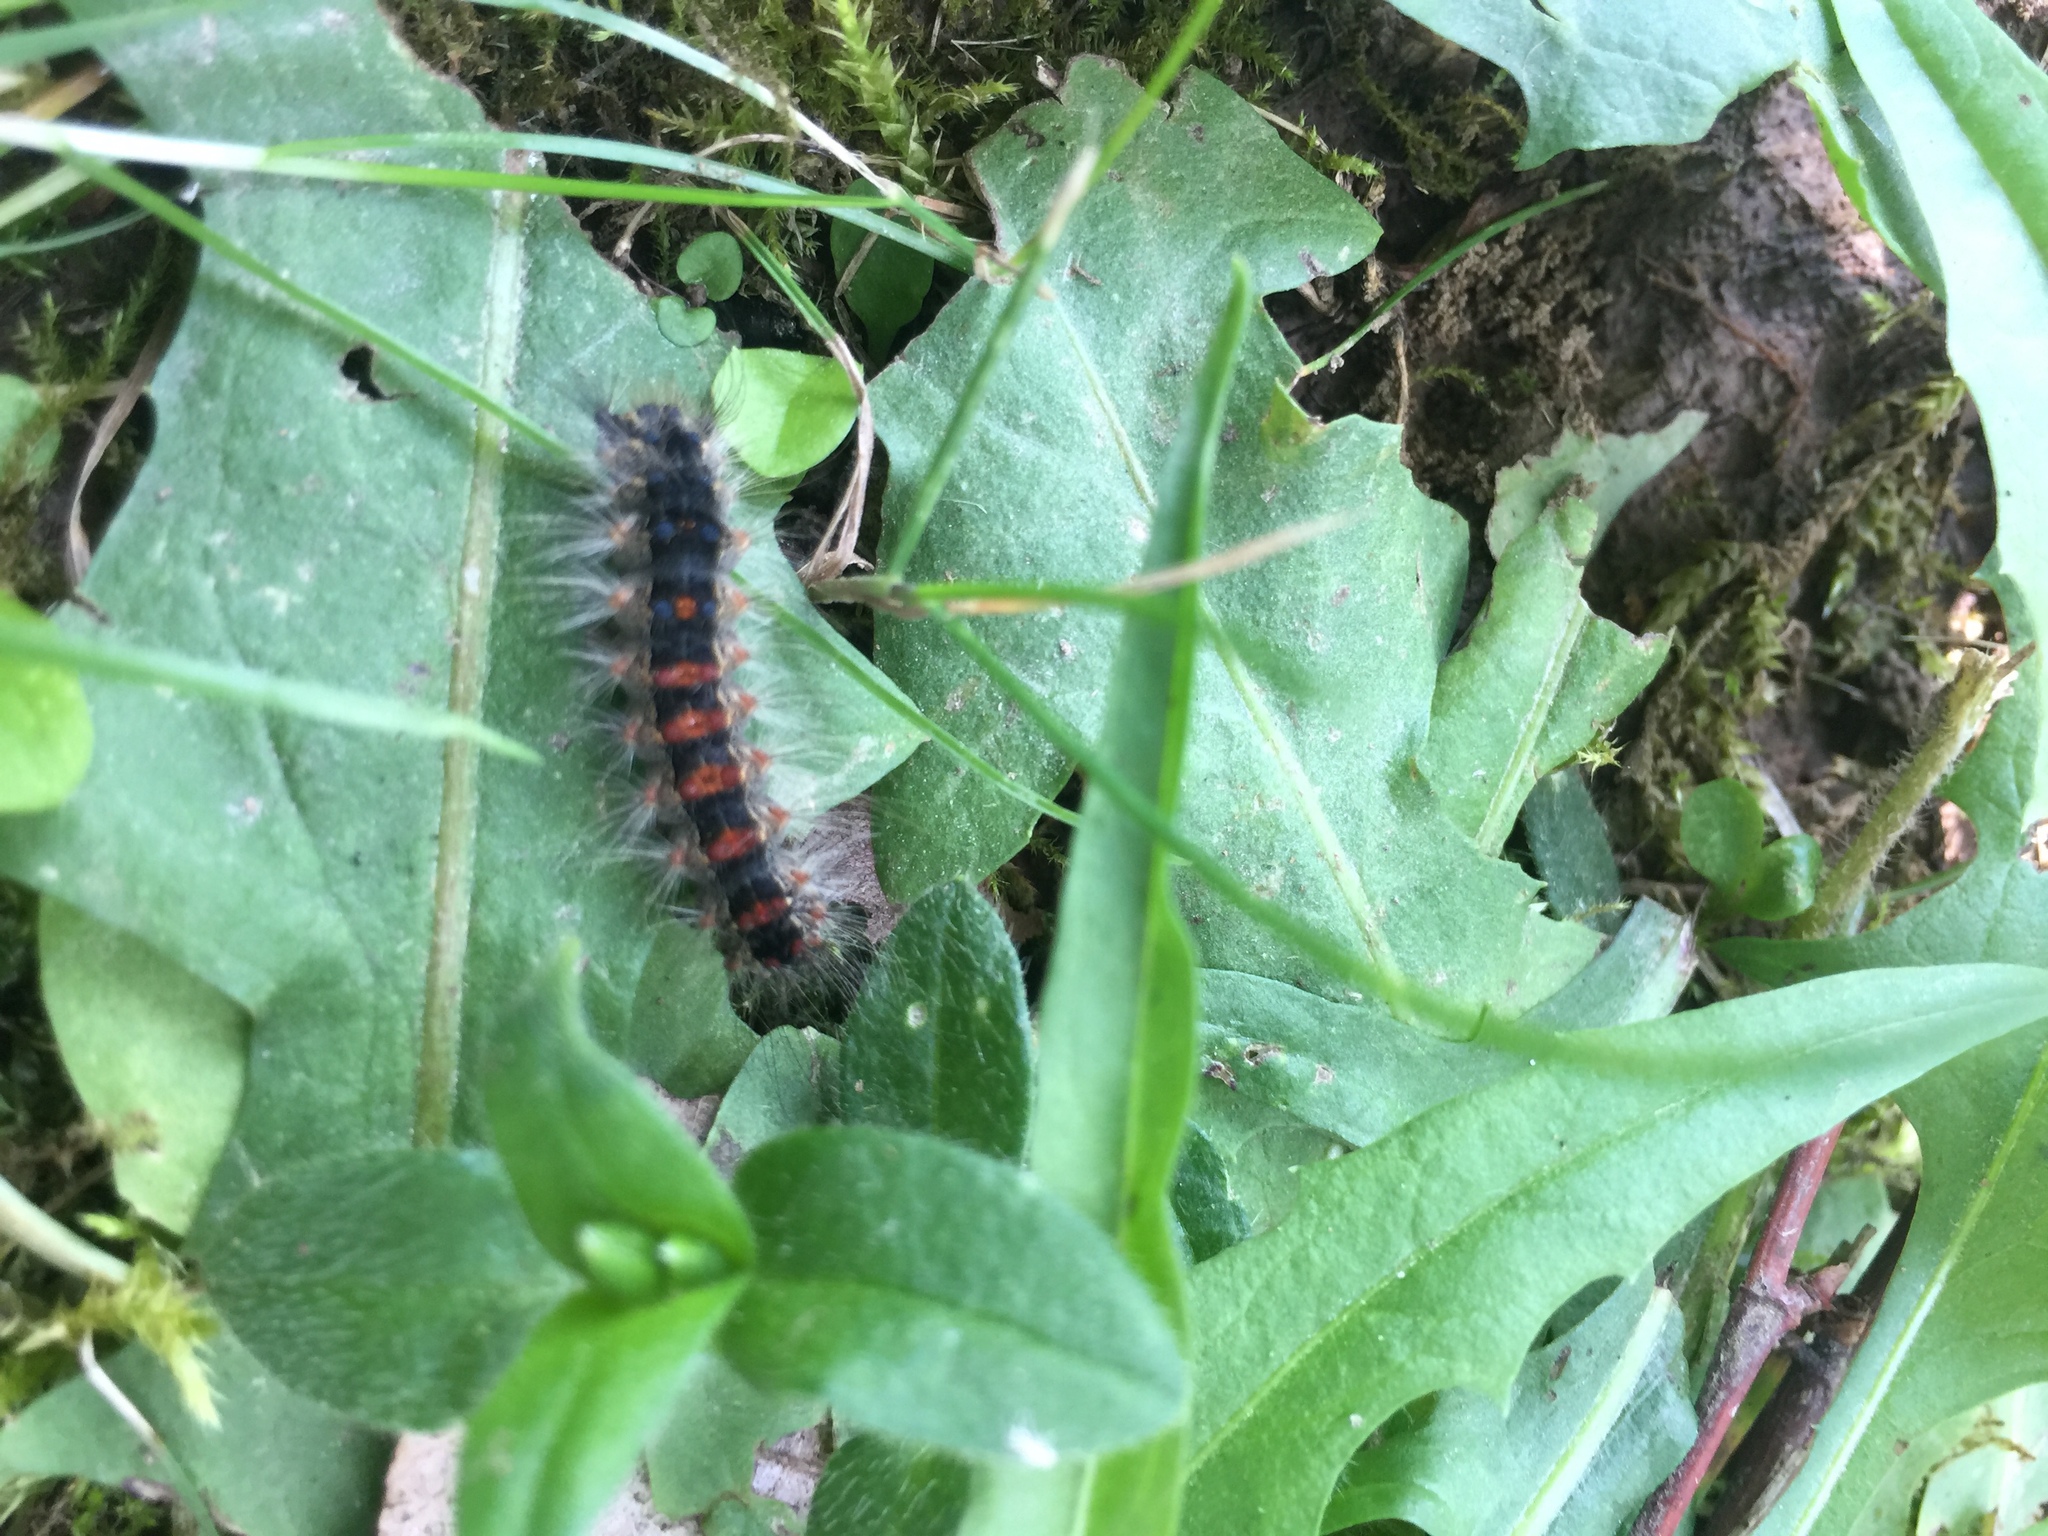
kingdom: Animalia
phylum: Arthropoda
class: Insecta
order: Lepidoptera
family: Erebidae
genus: Lymantria
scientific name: Lymantria dispar
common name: Gypsy moth
